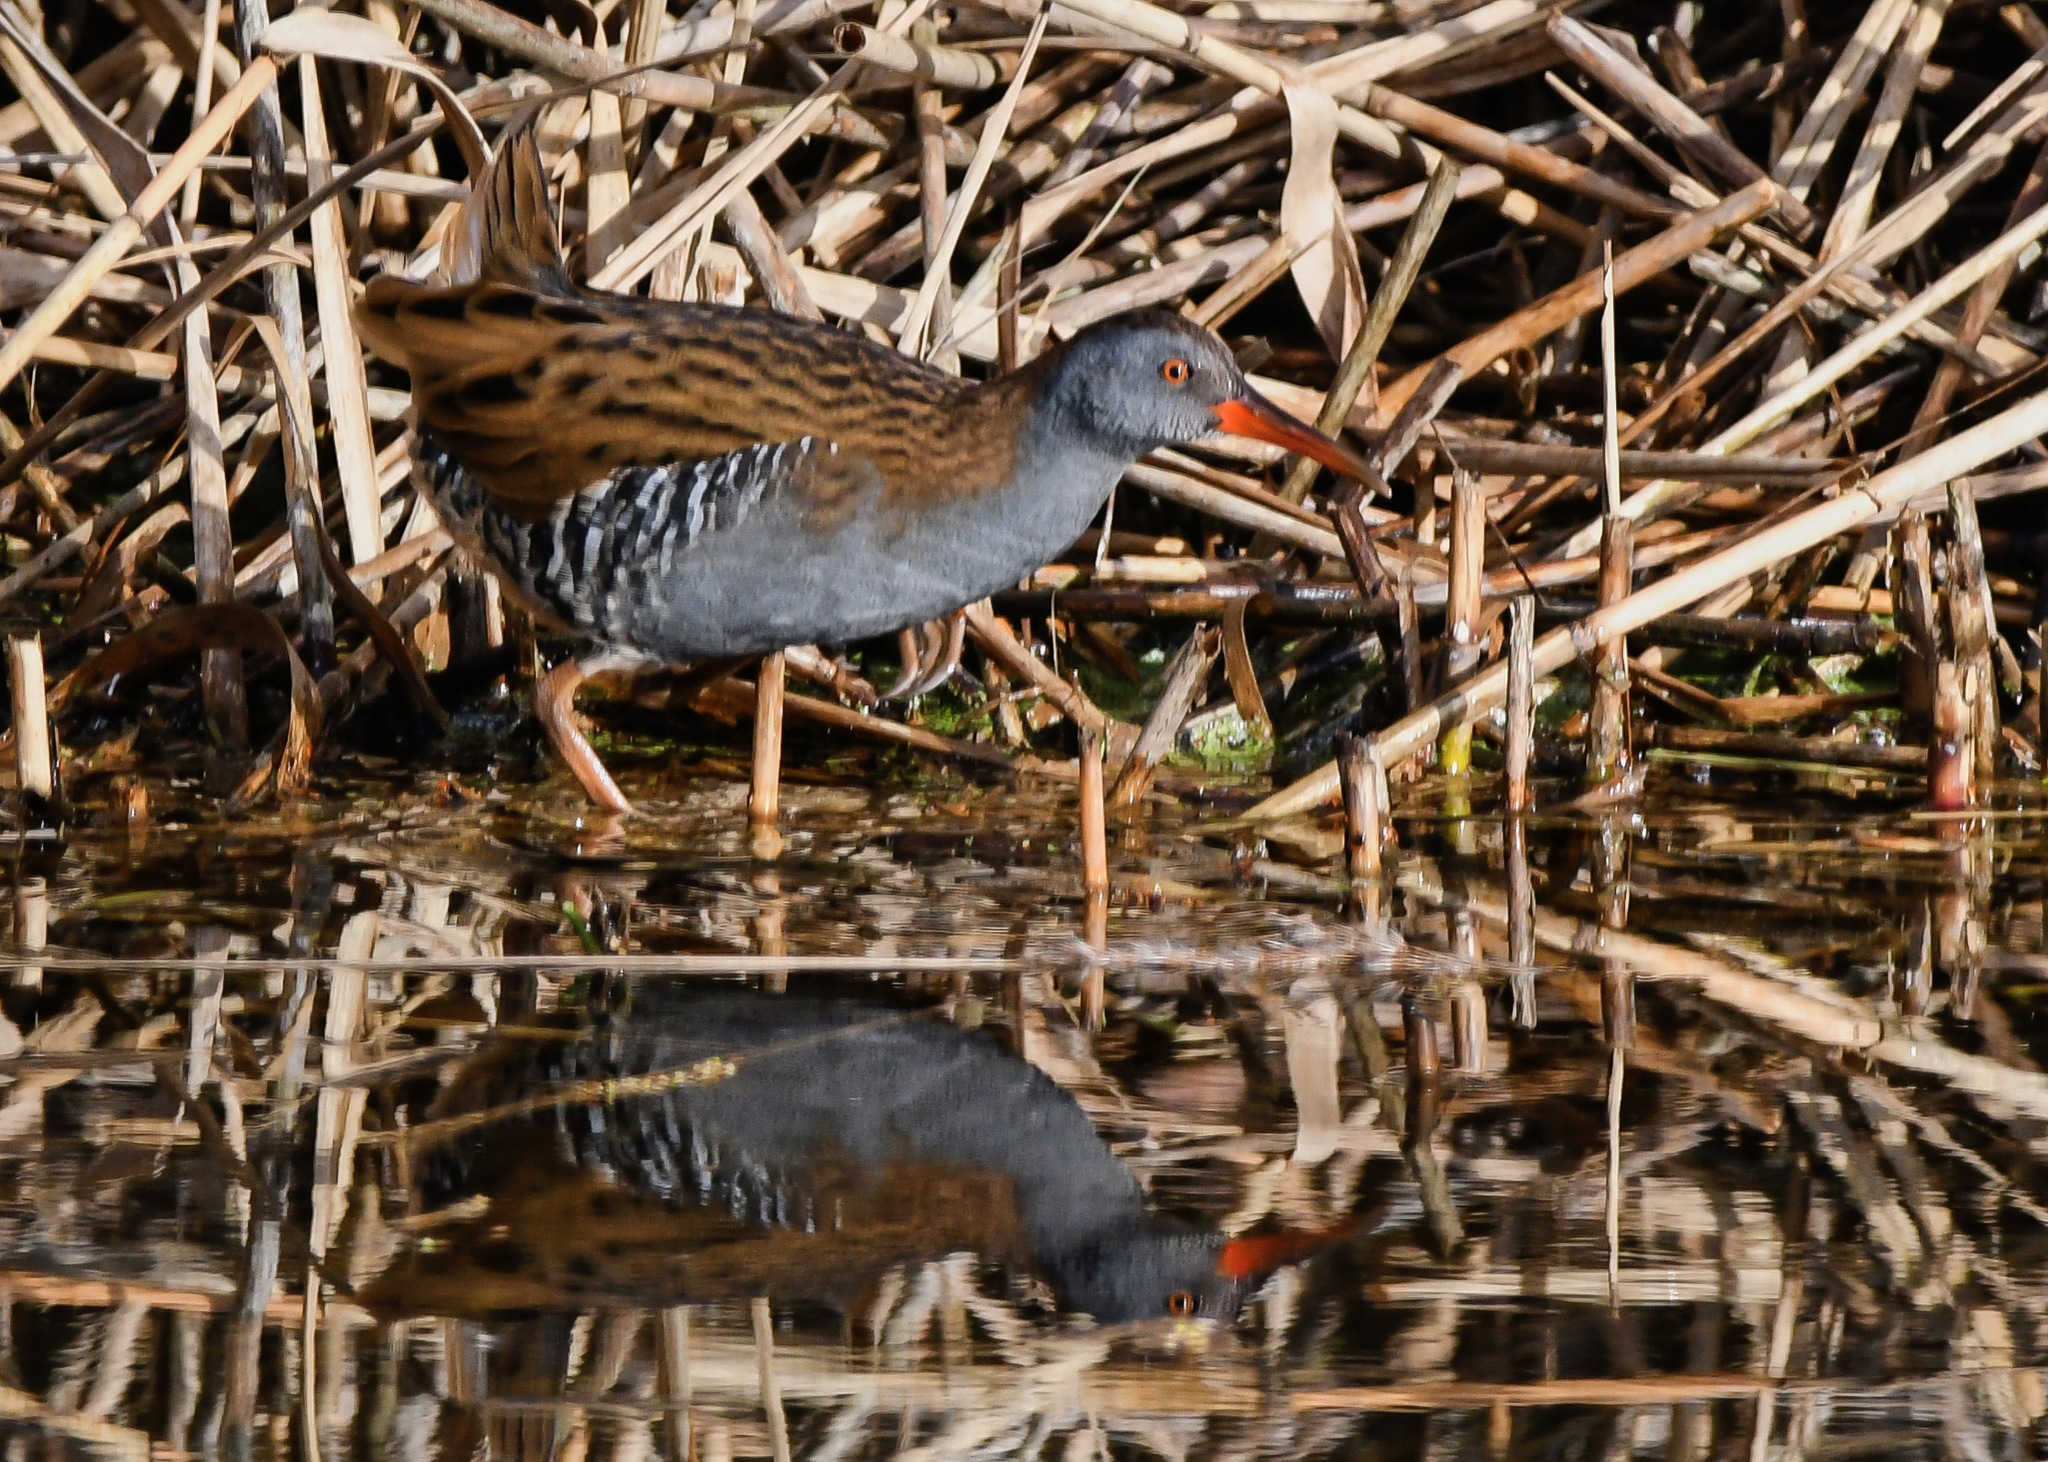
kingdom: Animalia
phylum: Chordata
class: Aves
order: Gruiformes
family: Rallidae
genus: Rallus
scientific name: Rallus aquaticus
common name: Water rail
